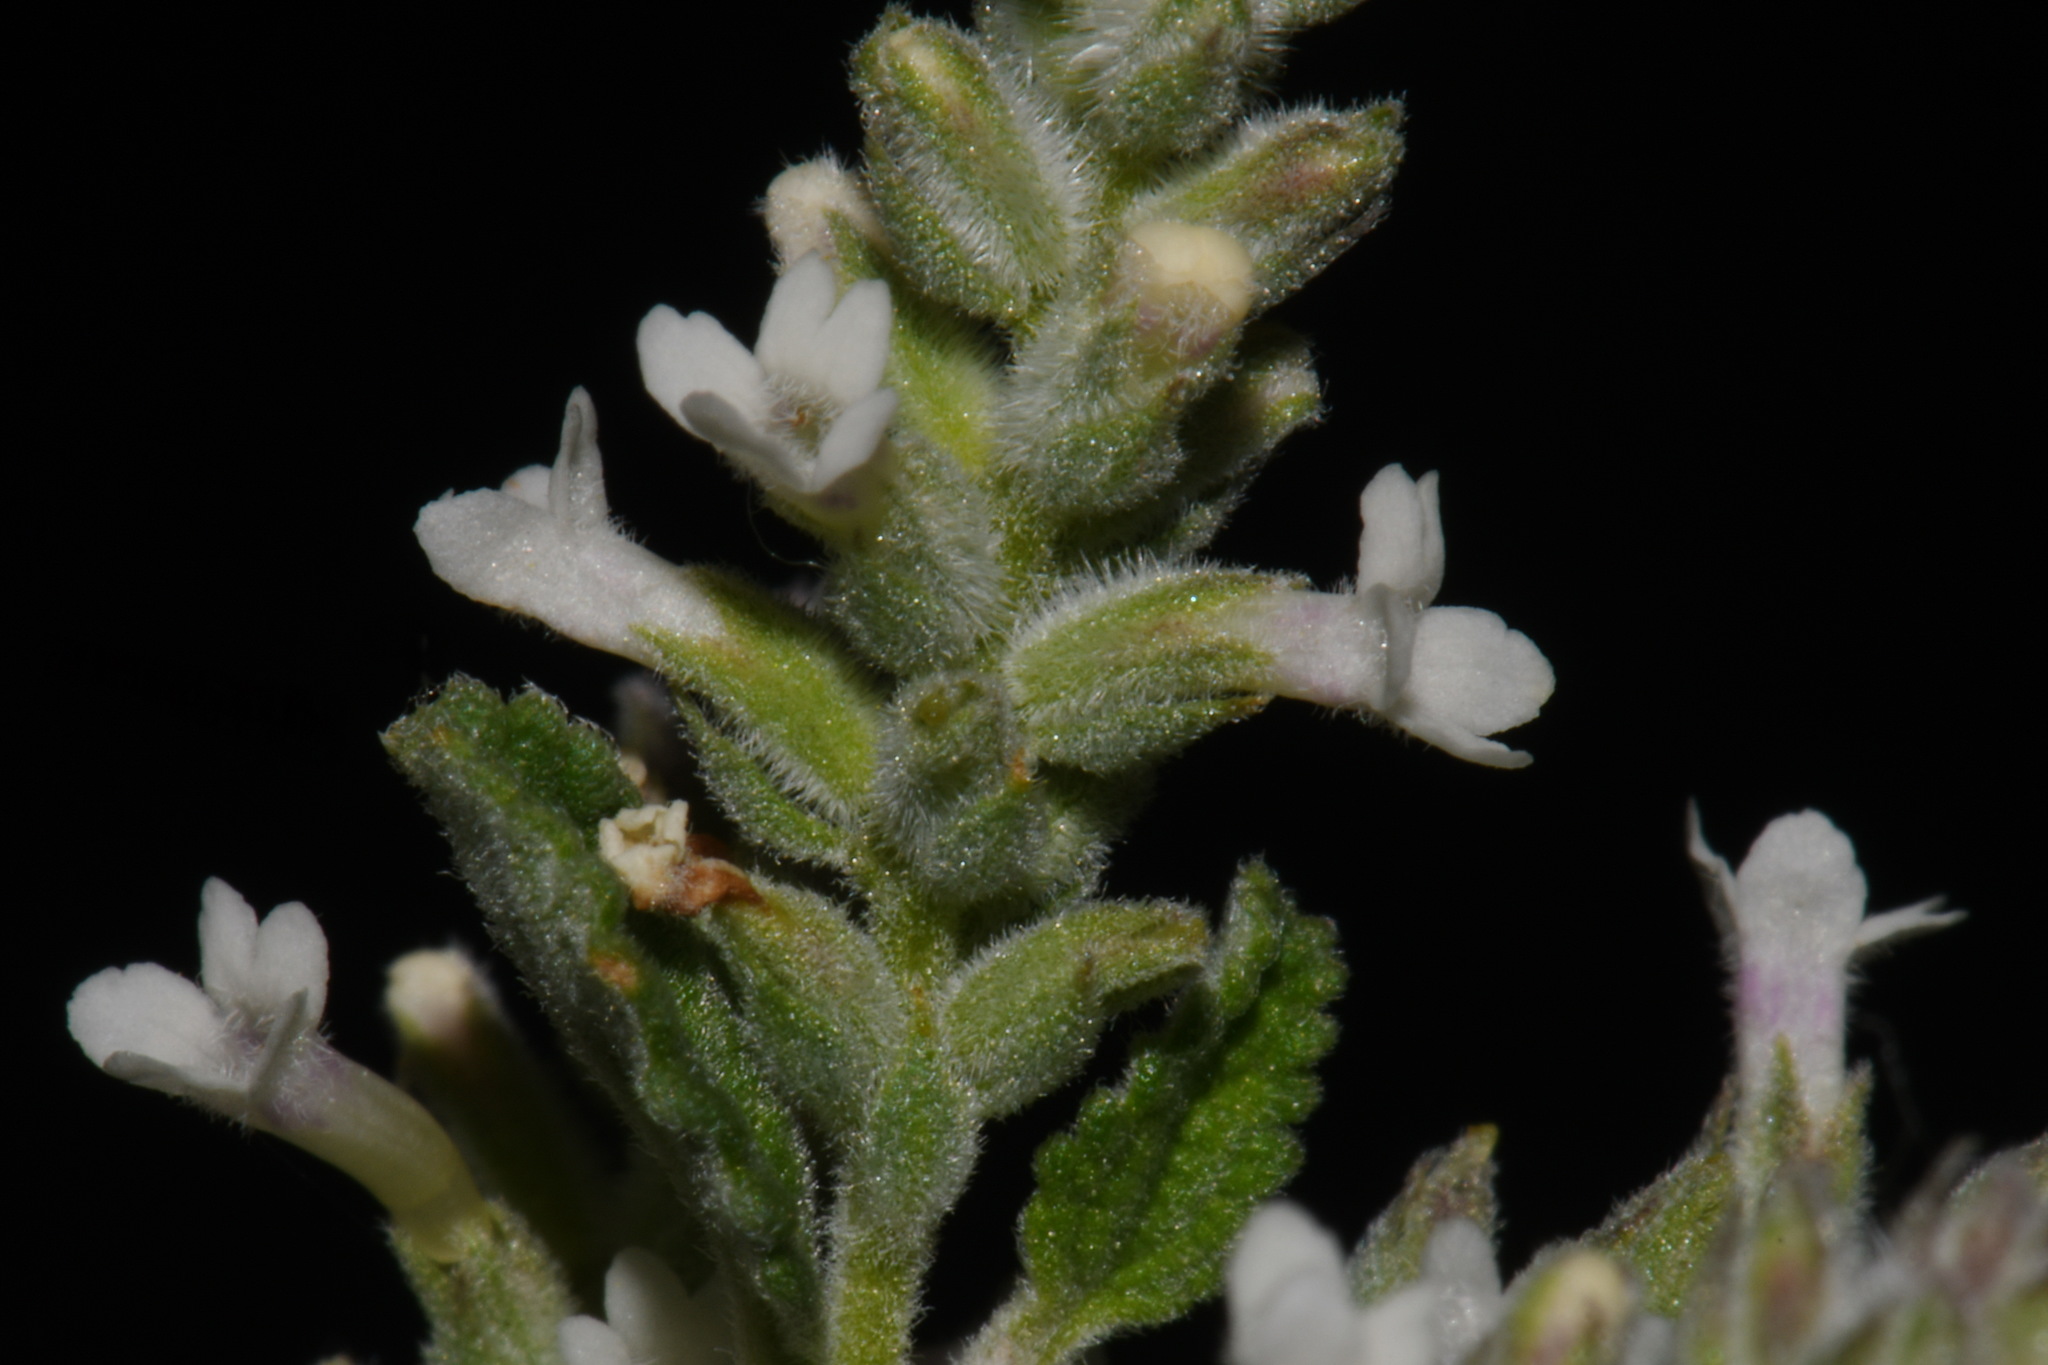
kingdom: Plantae
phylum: Tracheophyta
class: Magnoliopsida
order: Lamiales
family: Verbenaceae
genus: Aloysia
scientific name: Aloysia wrightii
